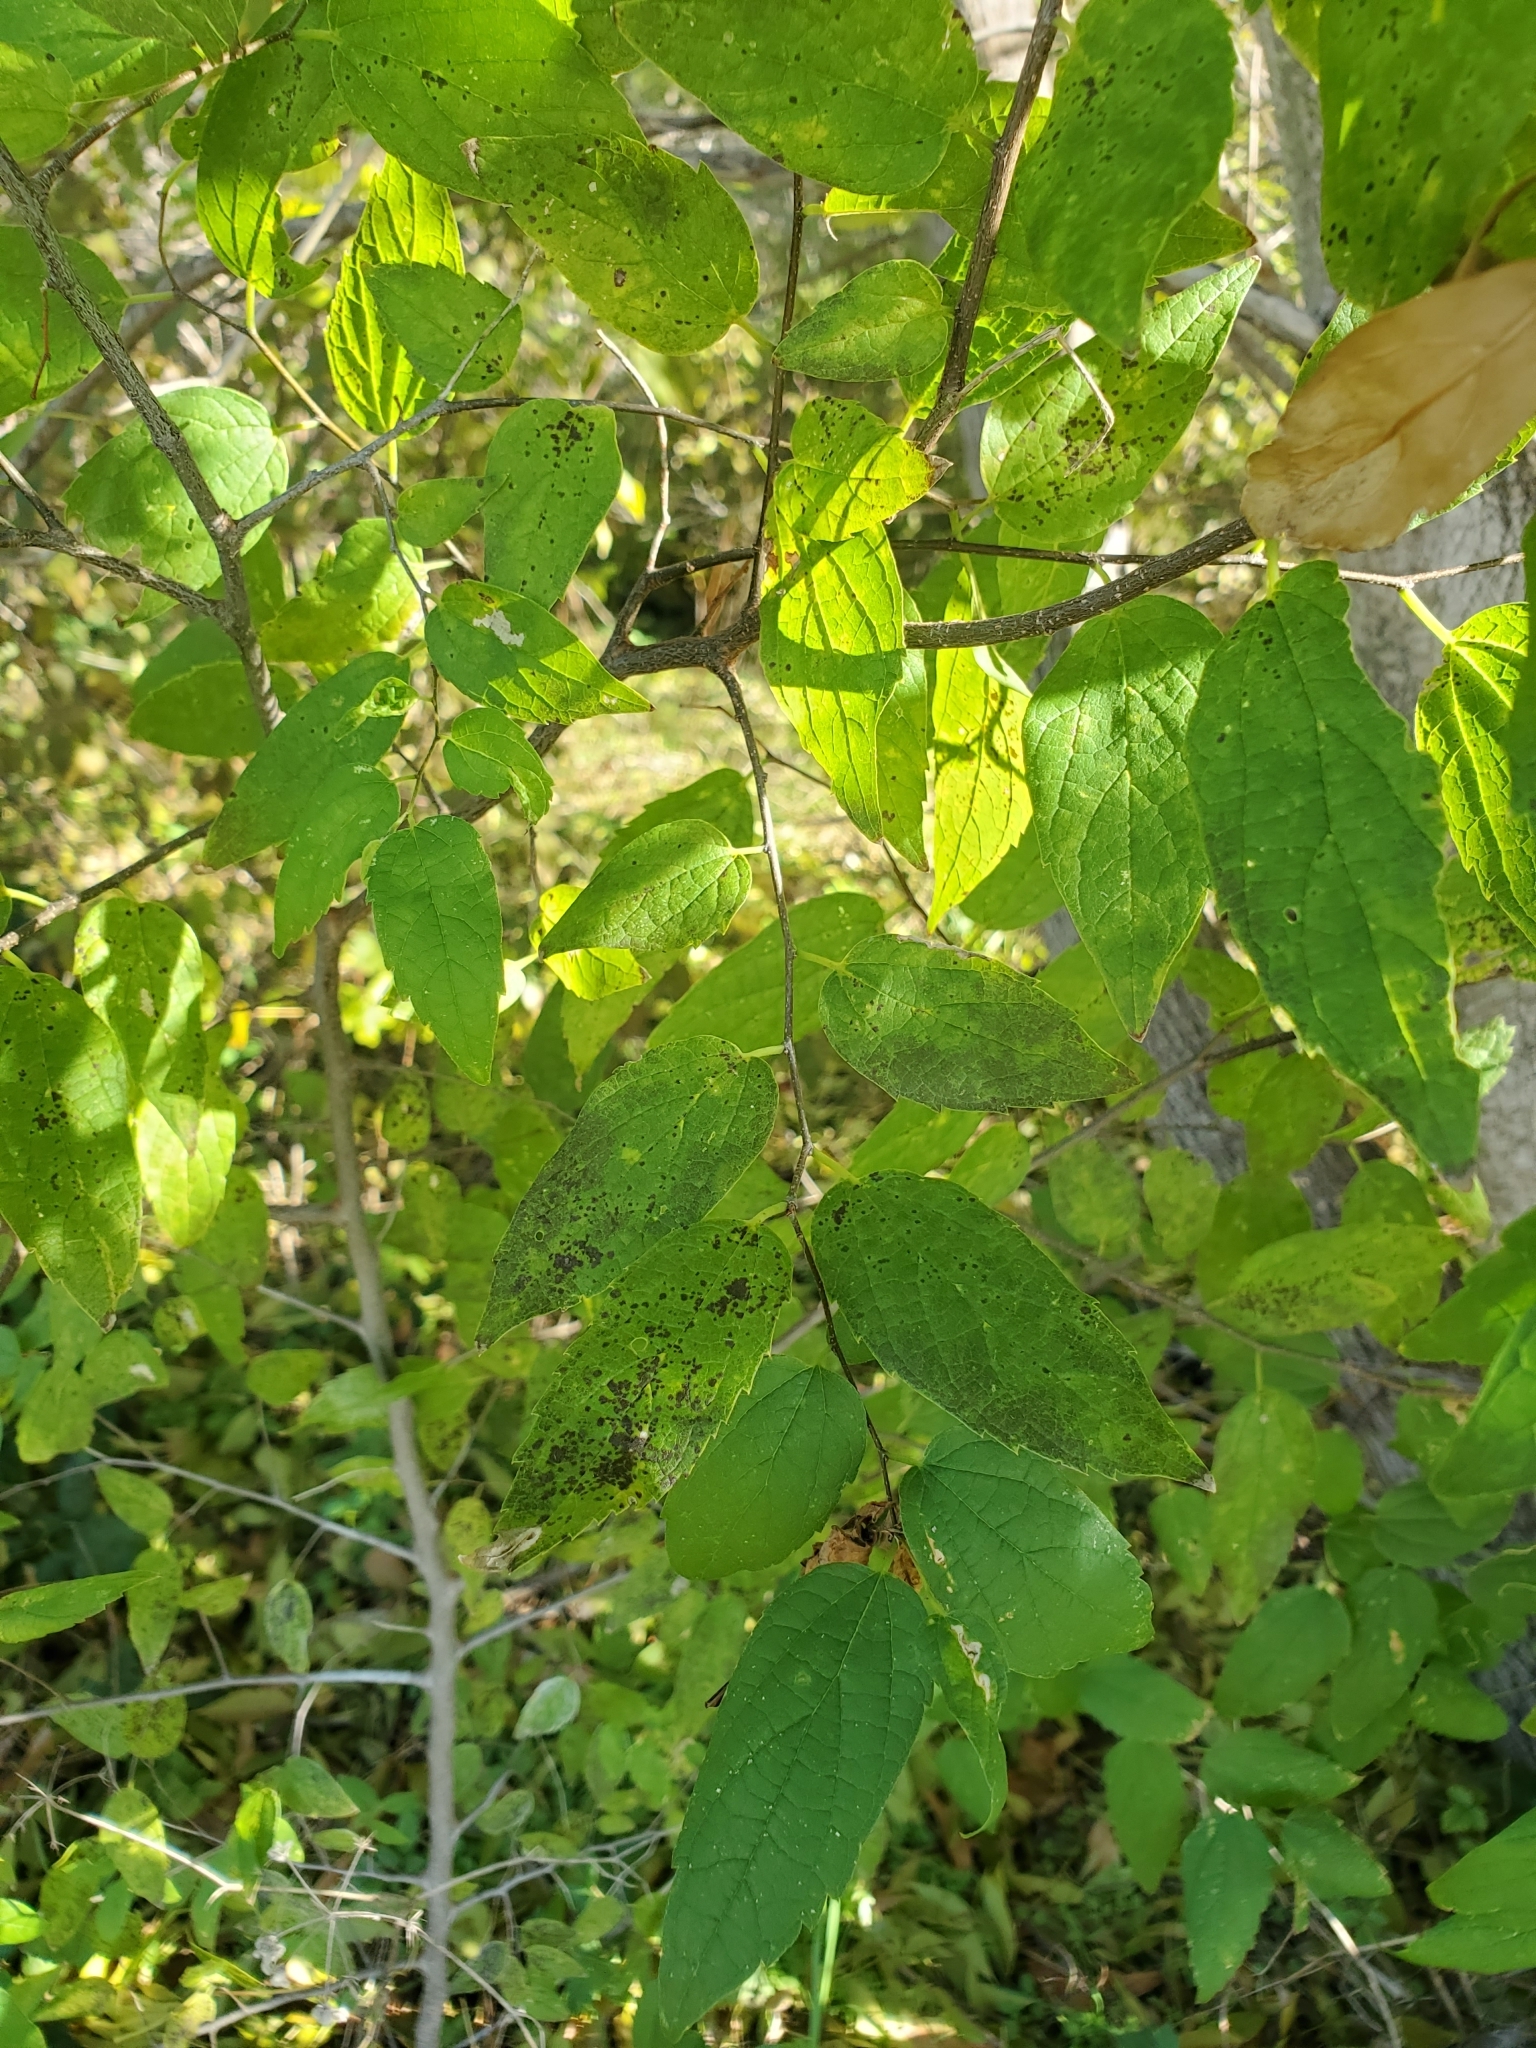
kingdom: Plantae
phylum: Tracheophyta
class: Magnoliopsida
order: Rosales
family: Cannabaceae
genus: Celtis
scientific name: Celtis laevigata
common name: Sugarberry
